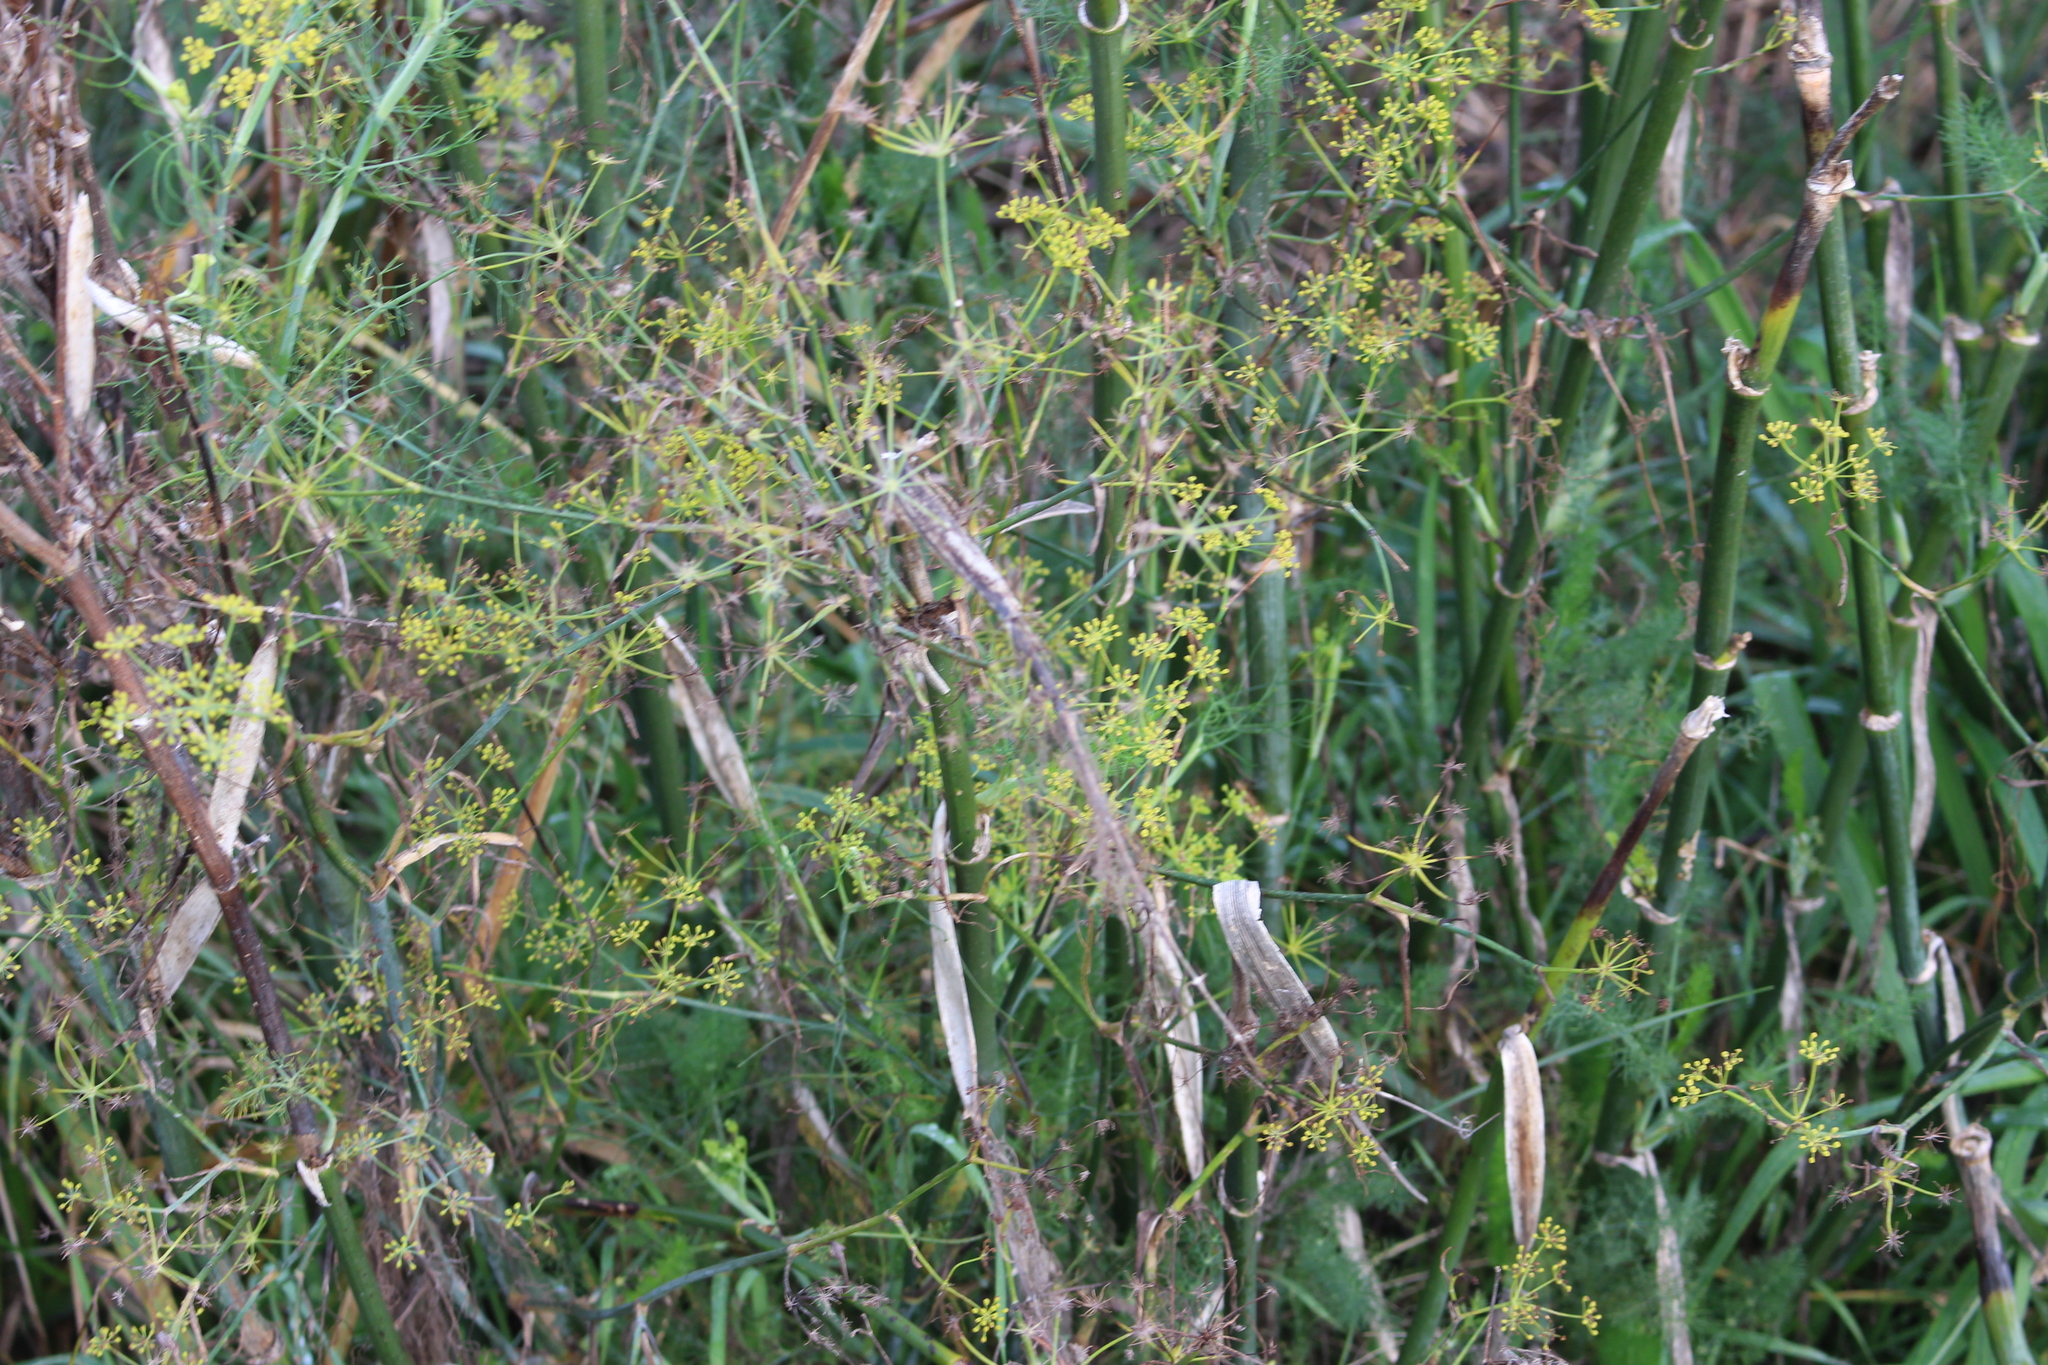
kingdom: Plantae
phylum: Tracheophyta
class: Magnoliopsida
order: Apiales
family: Apiaceae
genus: Foeniculum
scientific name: Foeniculum vulgare
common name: Fennel
